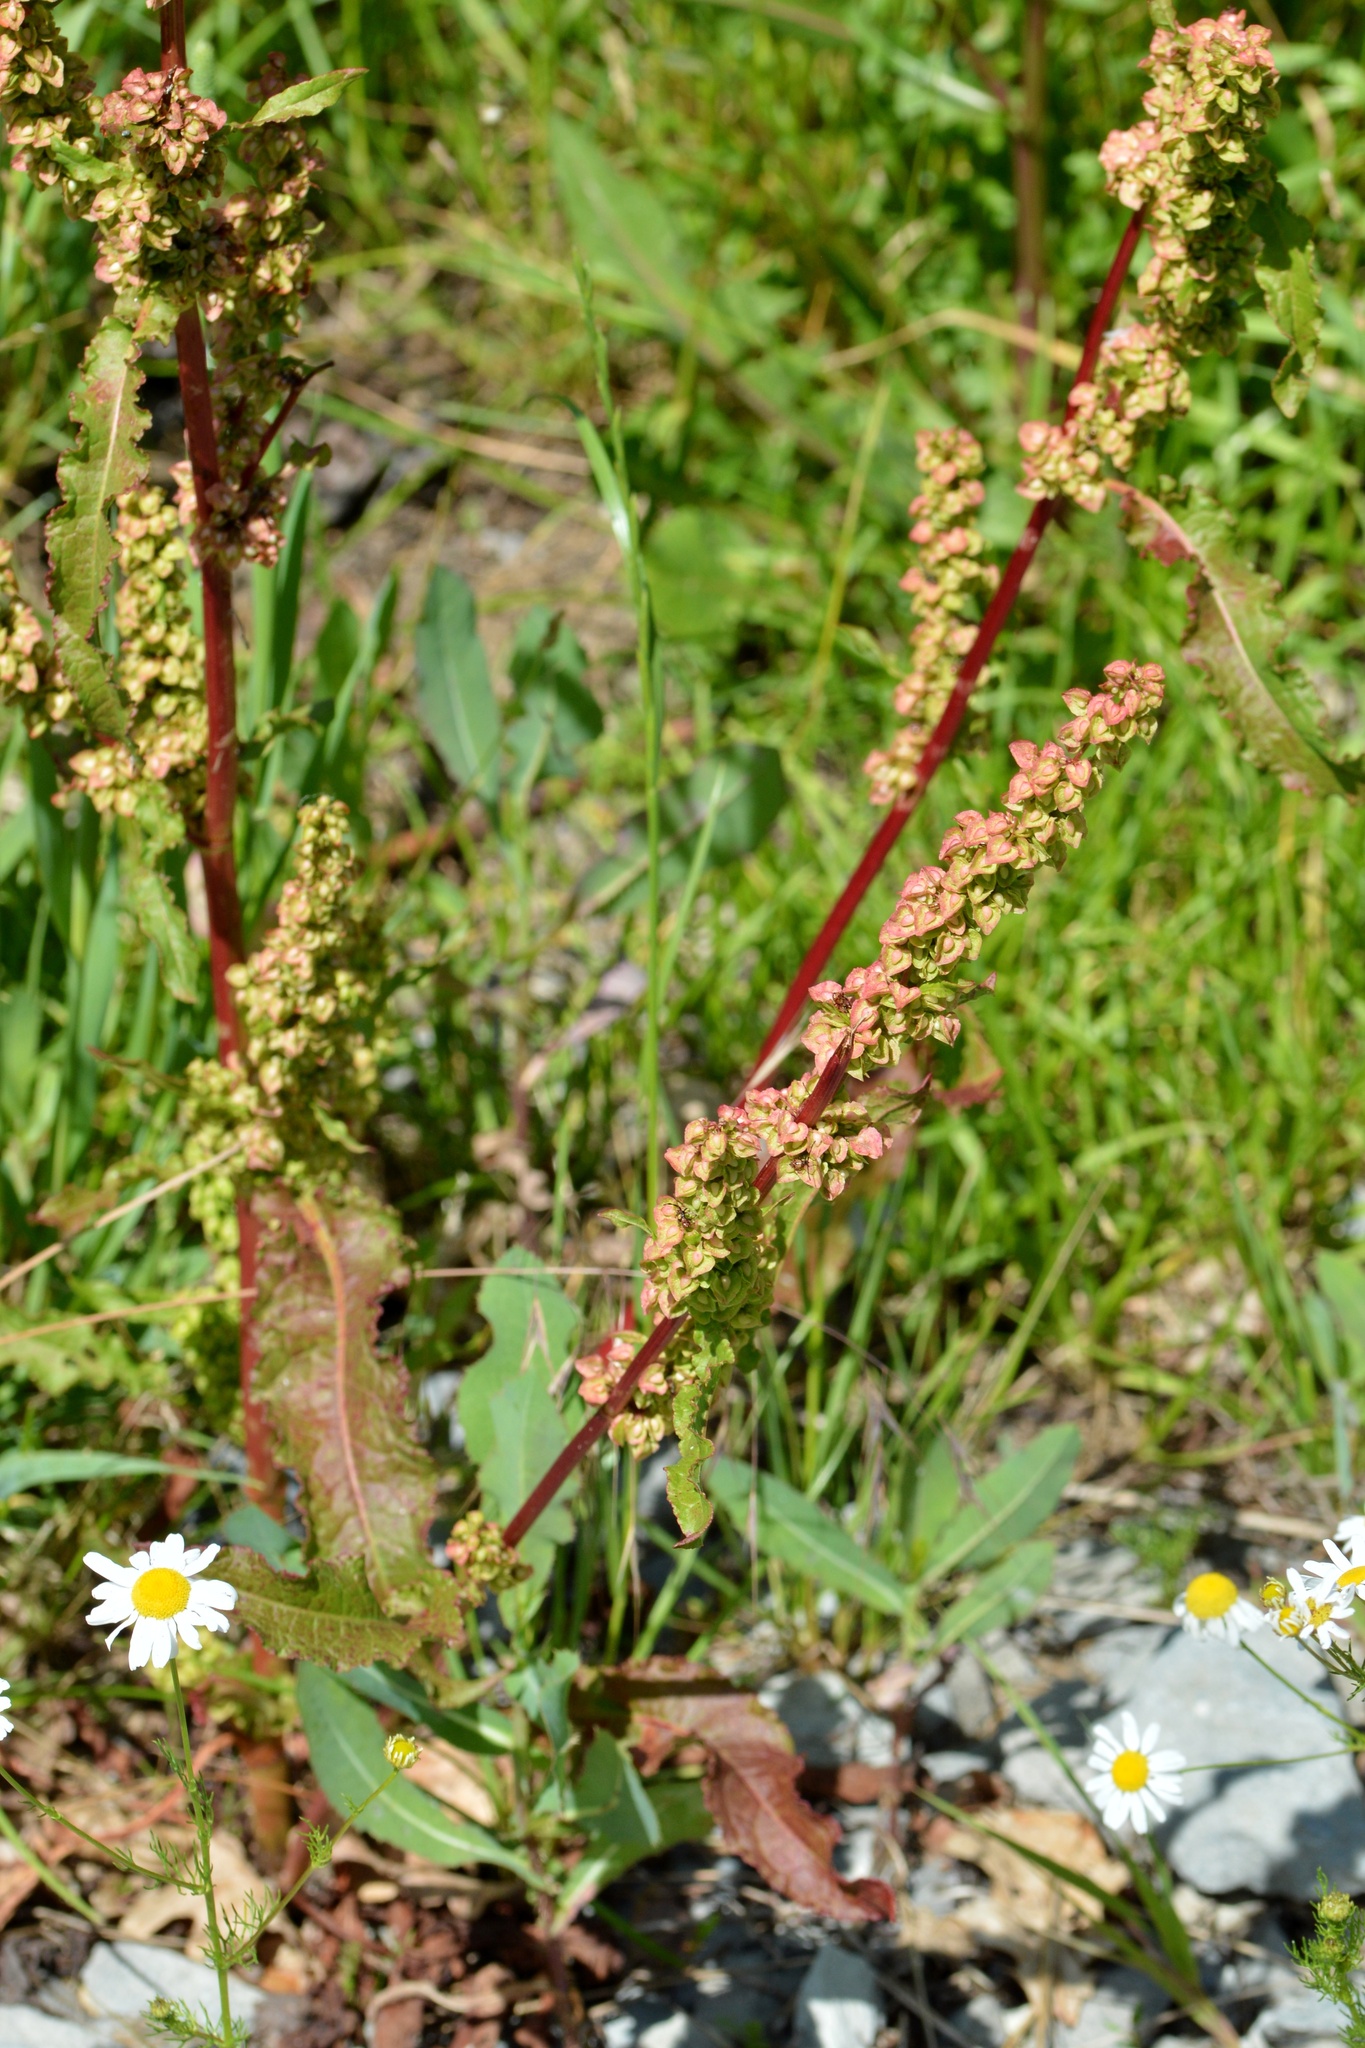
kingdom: Plantae
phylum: Tracheophyta
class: Magnoliopsida
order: Caryophyllales
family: Polygonaceae
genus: Rumex
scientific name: Rumex crispus
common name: Curled dock
